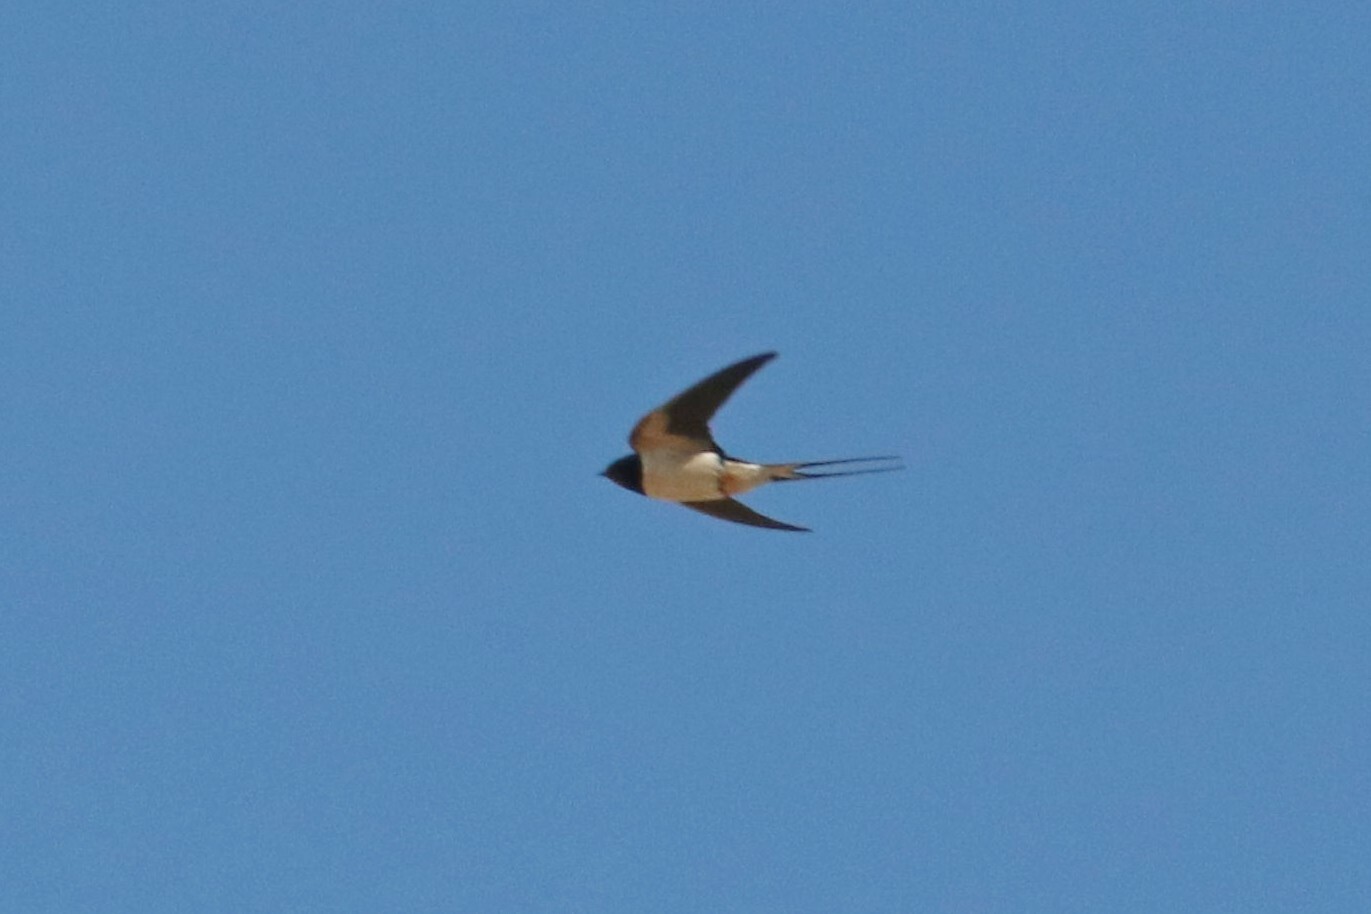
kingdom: Animalia
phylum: Chordata
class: Aves
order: Passeriformes
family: Hirundinidae
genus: Hirundo
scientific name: Hirundo rustica
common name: Barn swallow
